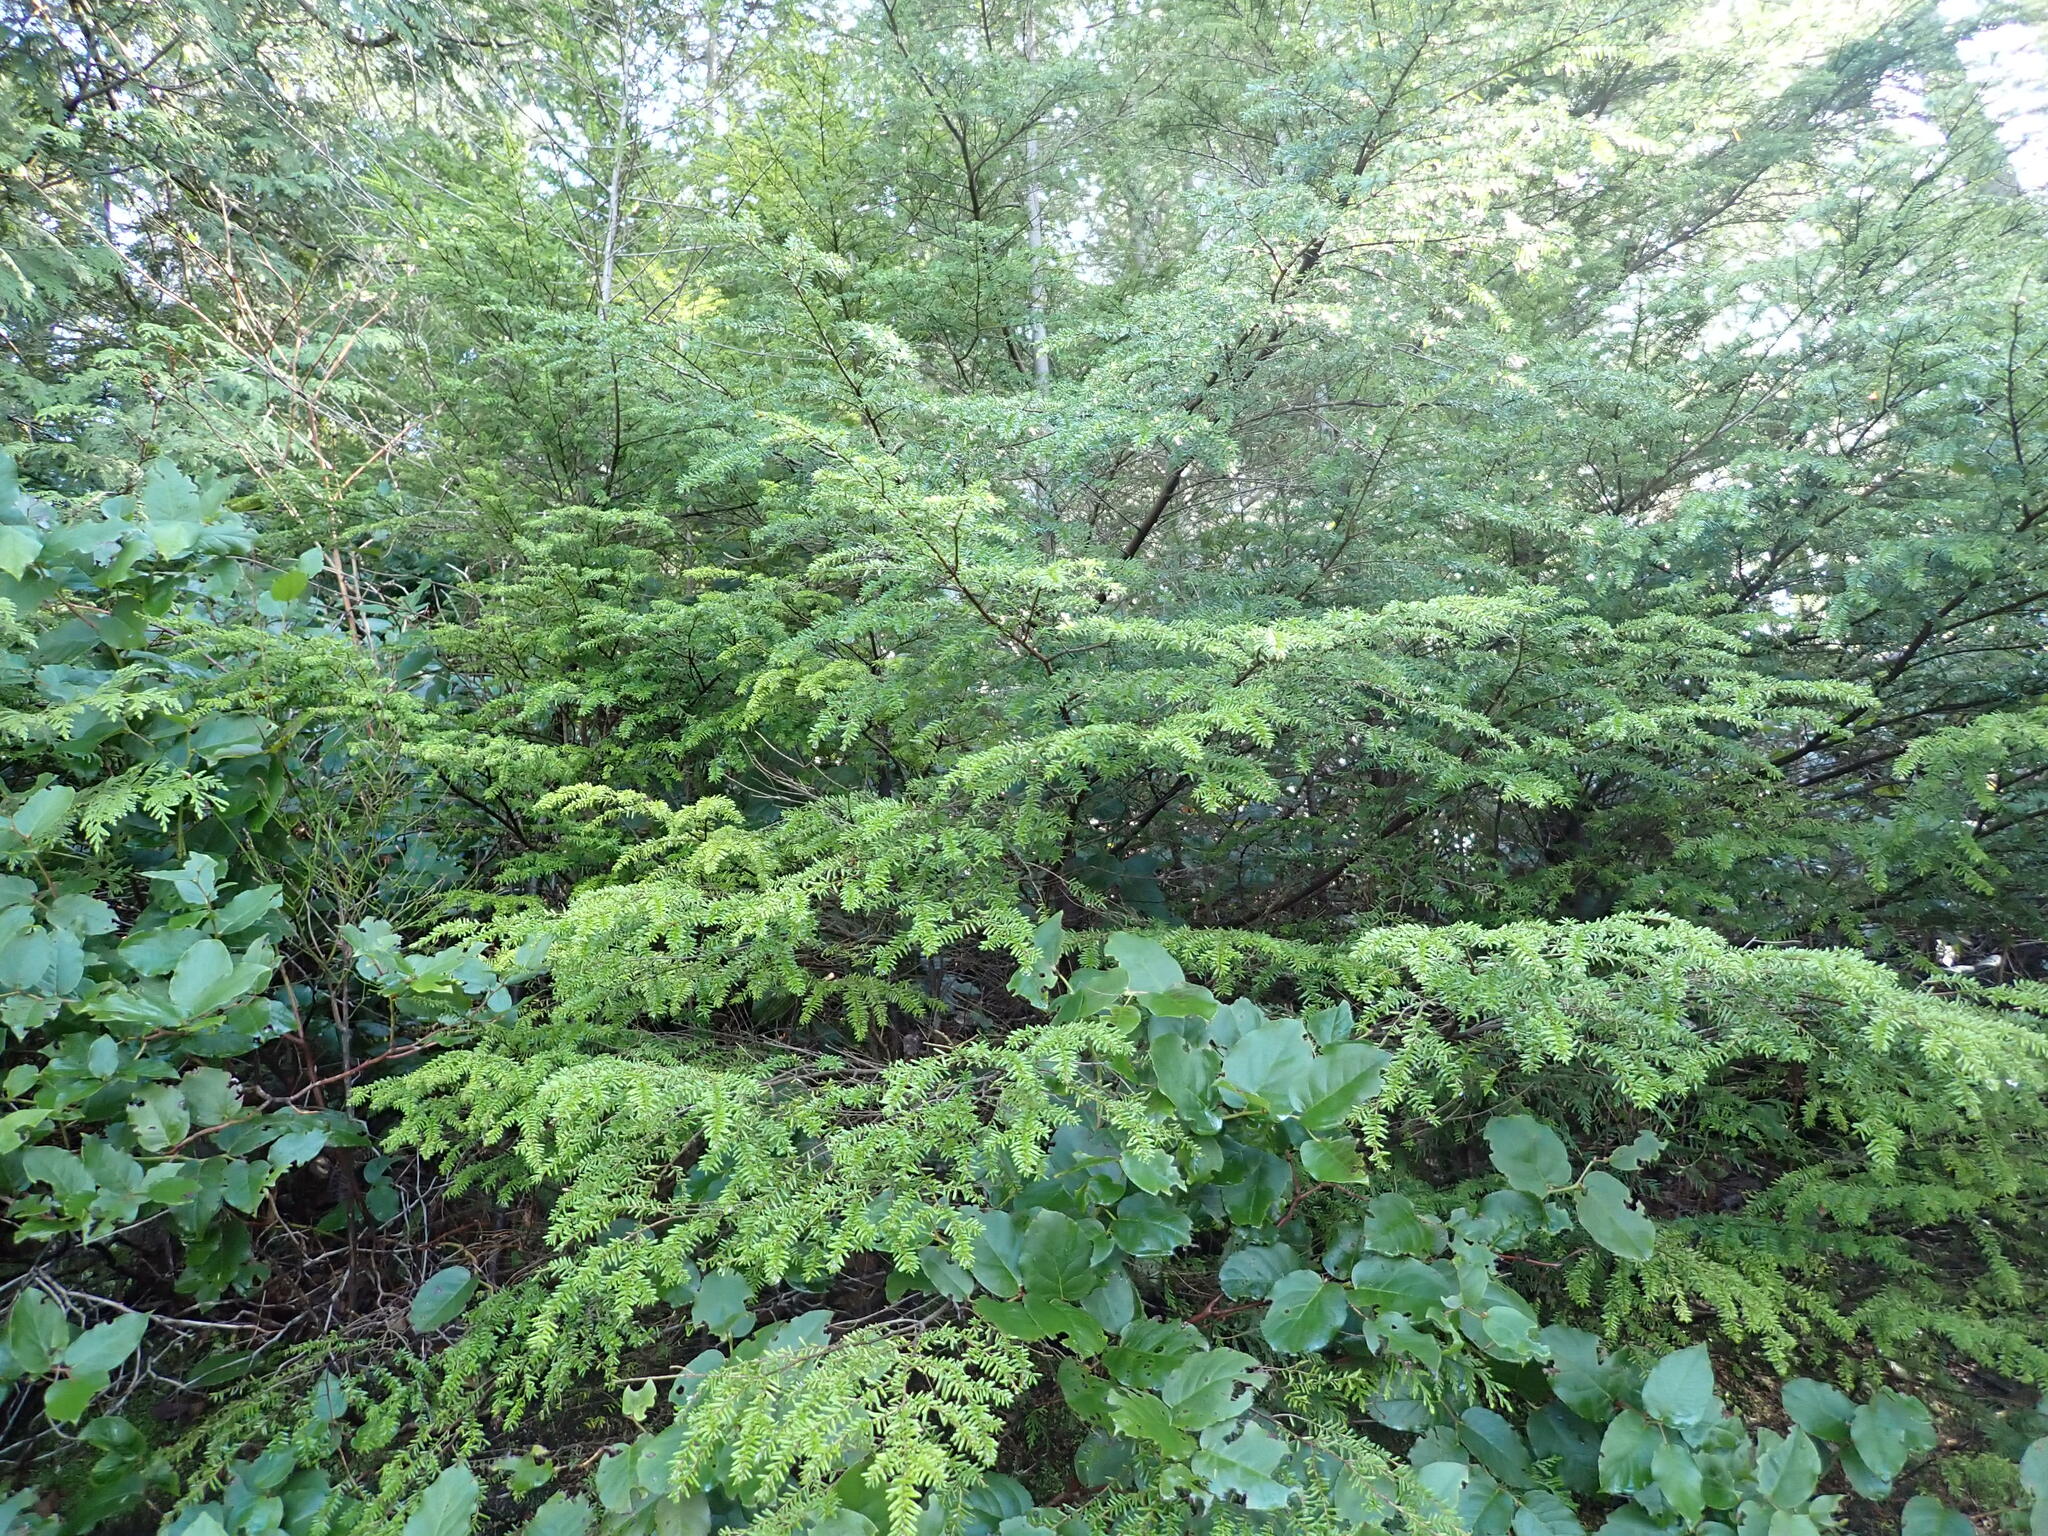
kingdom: Plantae
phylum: Tracheophyta
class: Pinopsida
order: Pinales
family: Pinaceae
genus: Tsuga
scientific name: Tsuga heterophylla
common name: Western hemlock
